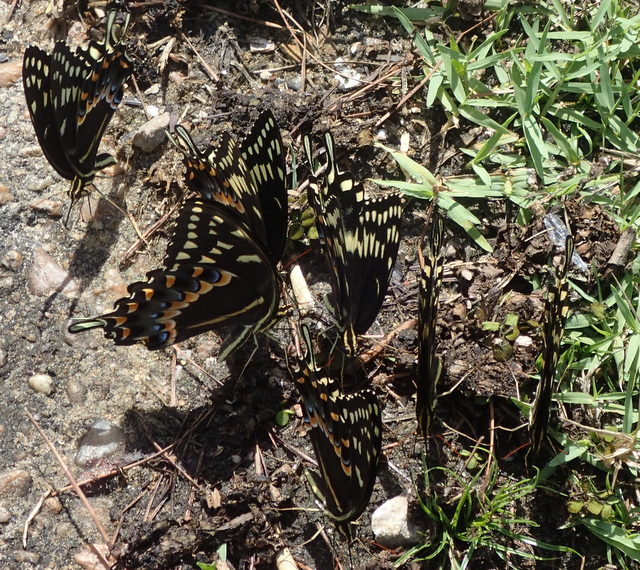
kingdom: Animalia
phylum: Arthropoda
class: Insecta
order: Lepidoptera
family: Papilionidae
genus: Papilio
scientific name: Papilio palamedes
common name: Palamedes swallowtail
